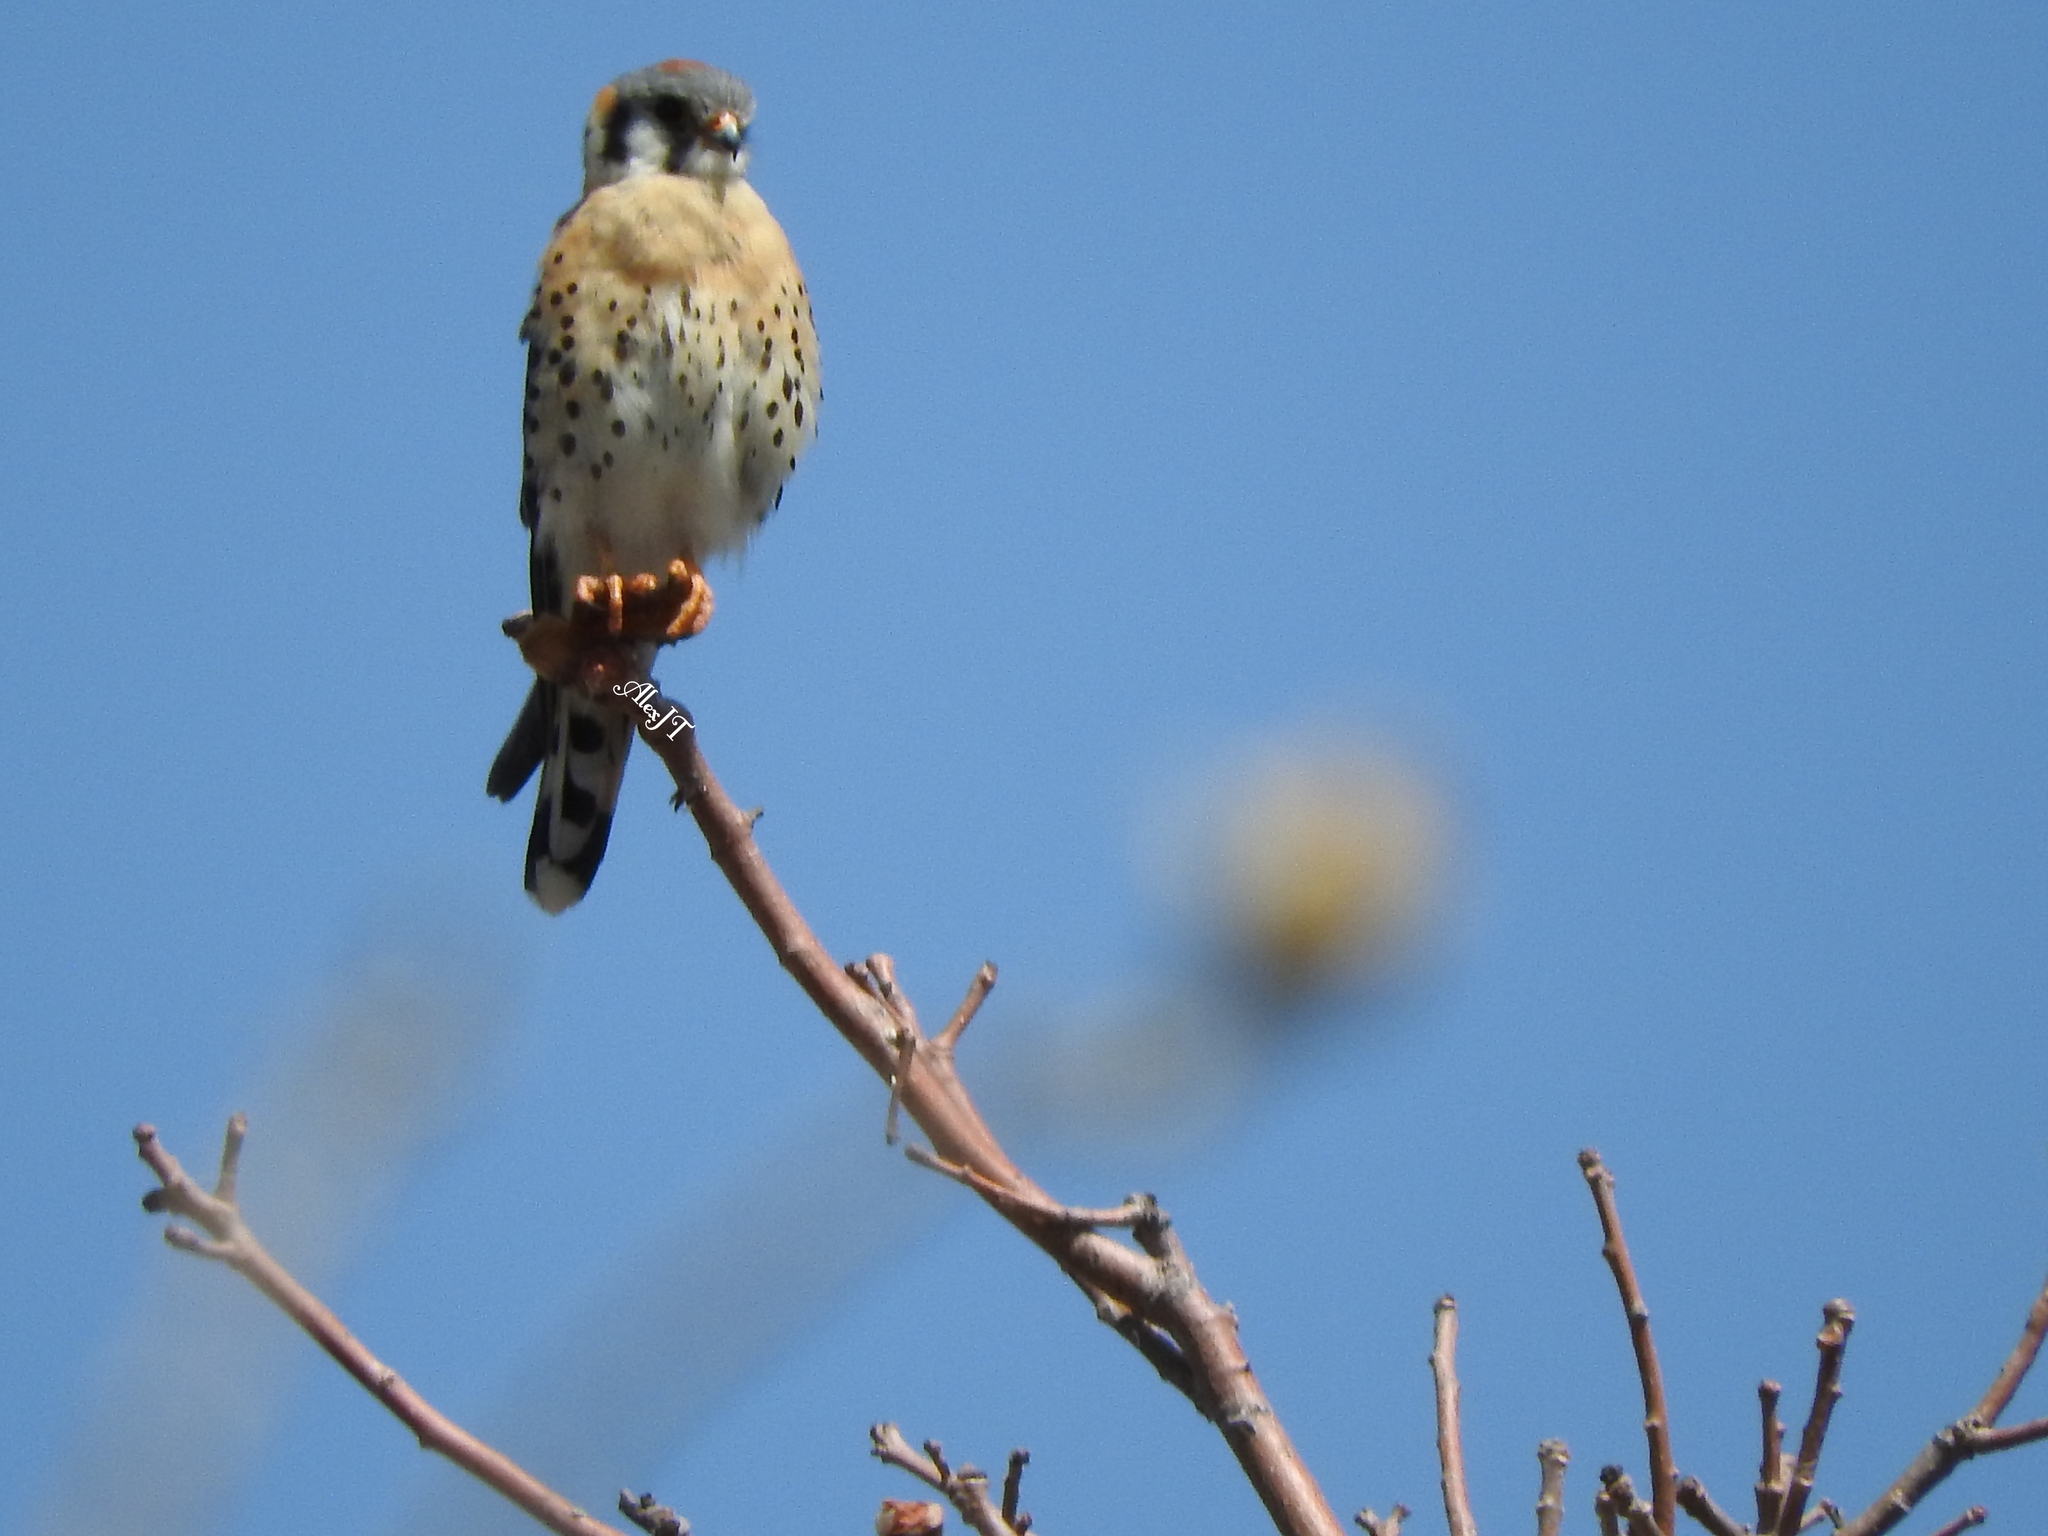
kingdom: Animalia
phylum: Chordata
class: Aves
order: Falconiformes
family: Falconidae
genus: Falco
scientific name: Falco sparverius
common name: American kestrel
